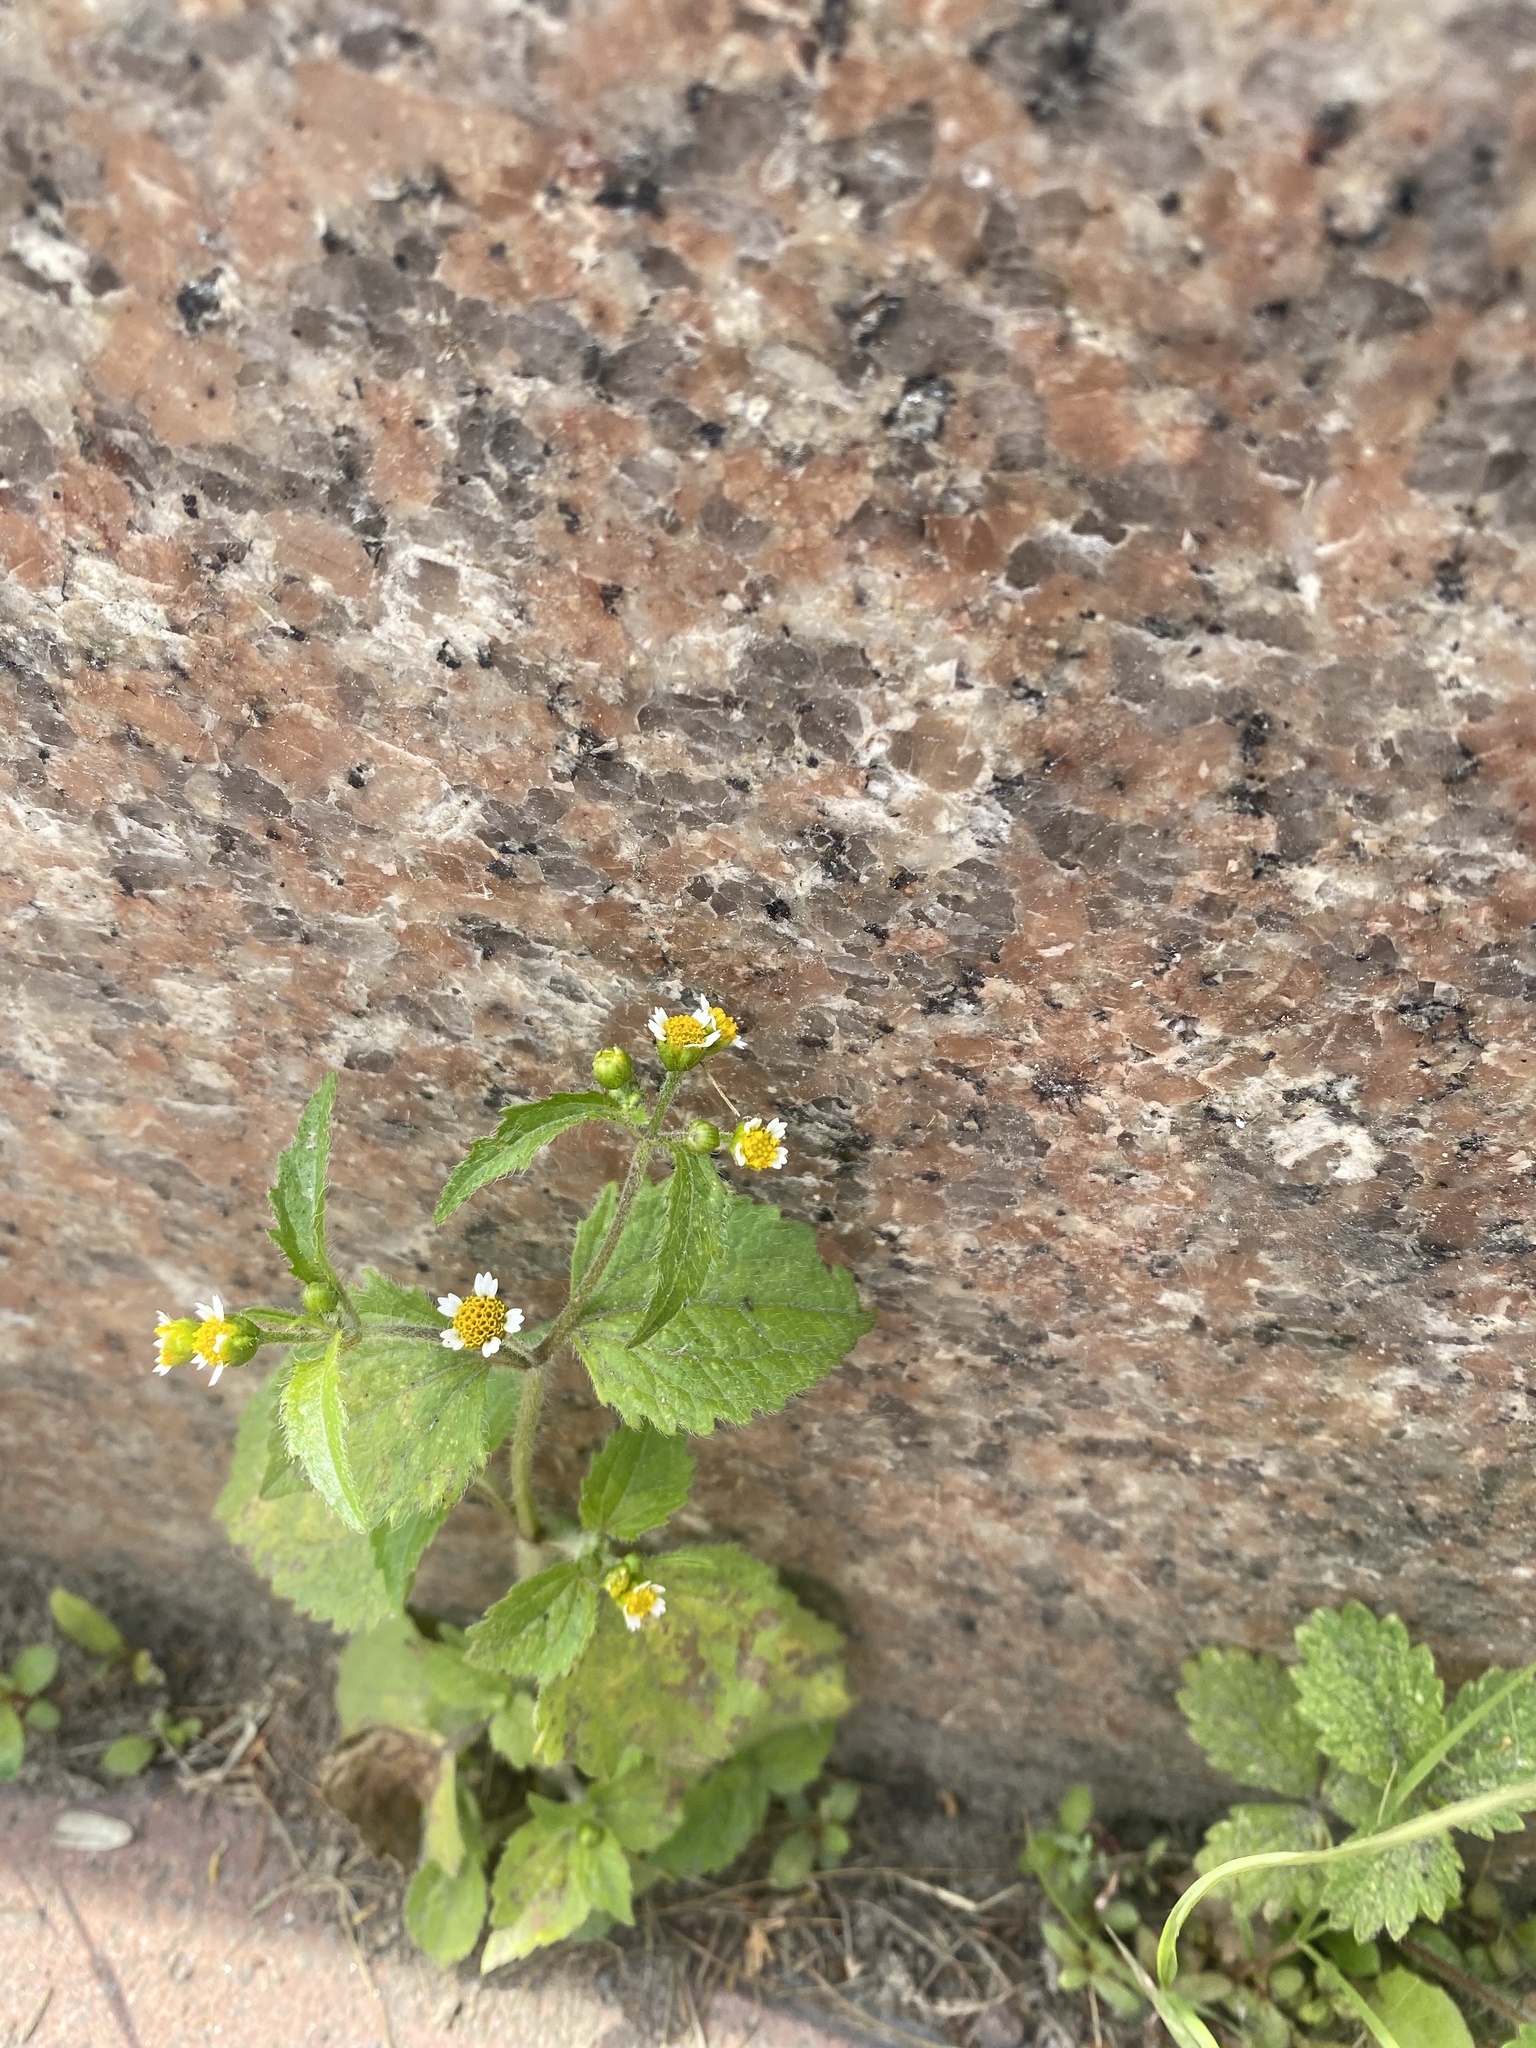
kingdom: Plantae
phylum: Tracheophyta
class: Magnoliopsida
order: Asterales
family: Asteraceae
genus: Galinsoga
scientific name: Galinsoga quadriradiata
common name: Shaggy soldier
